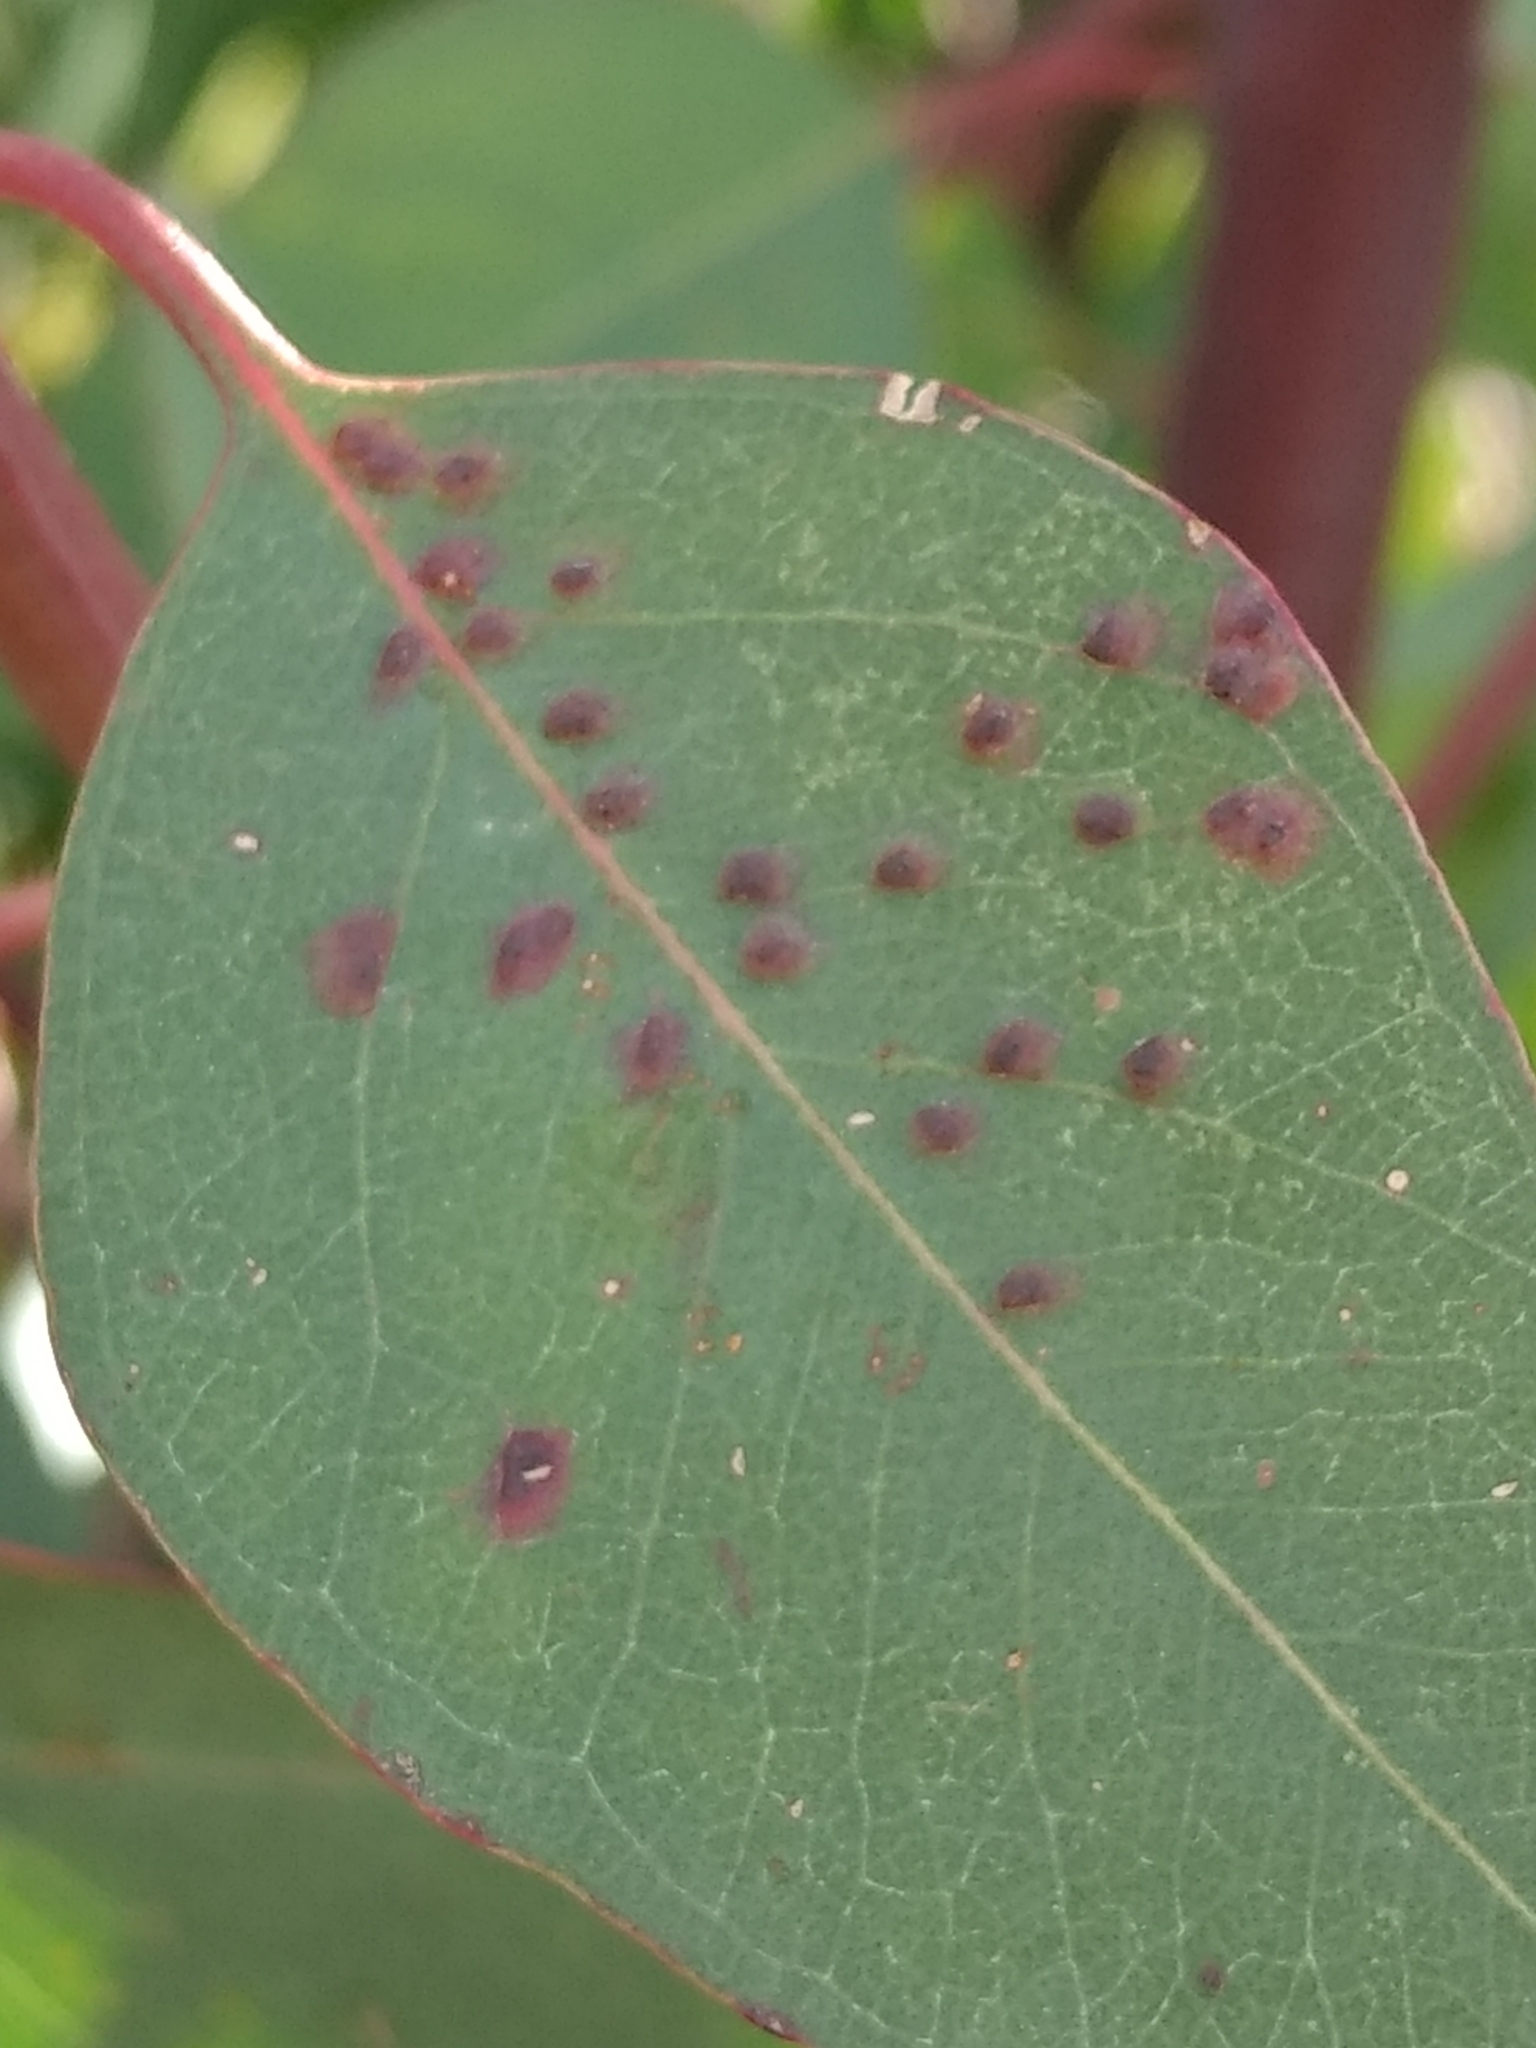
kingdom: Animalia
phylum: Arthropoda
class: Insecta
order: Hymenoptera
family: Eulophidae
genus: Ophelimus
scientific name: Ophelimus maskelli
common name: Gall wasp
